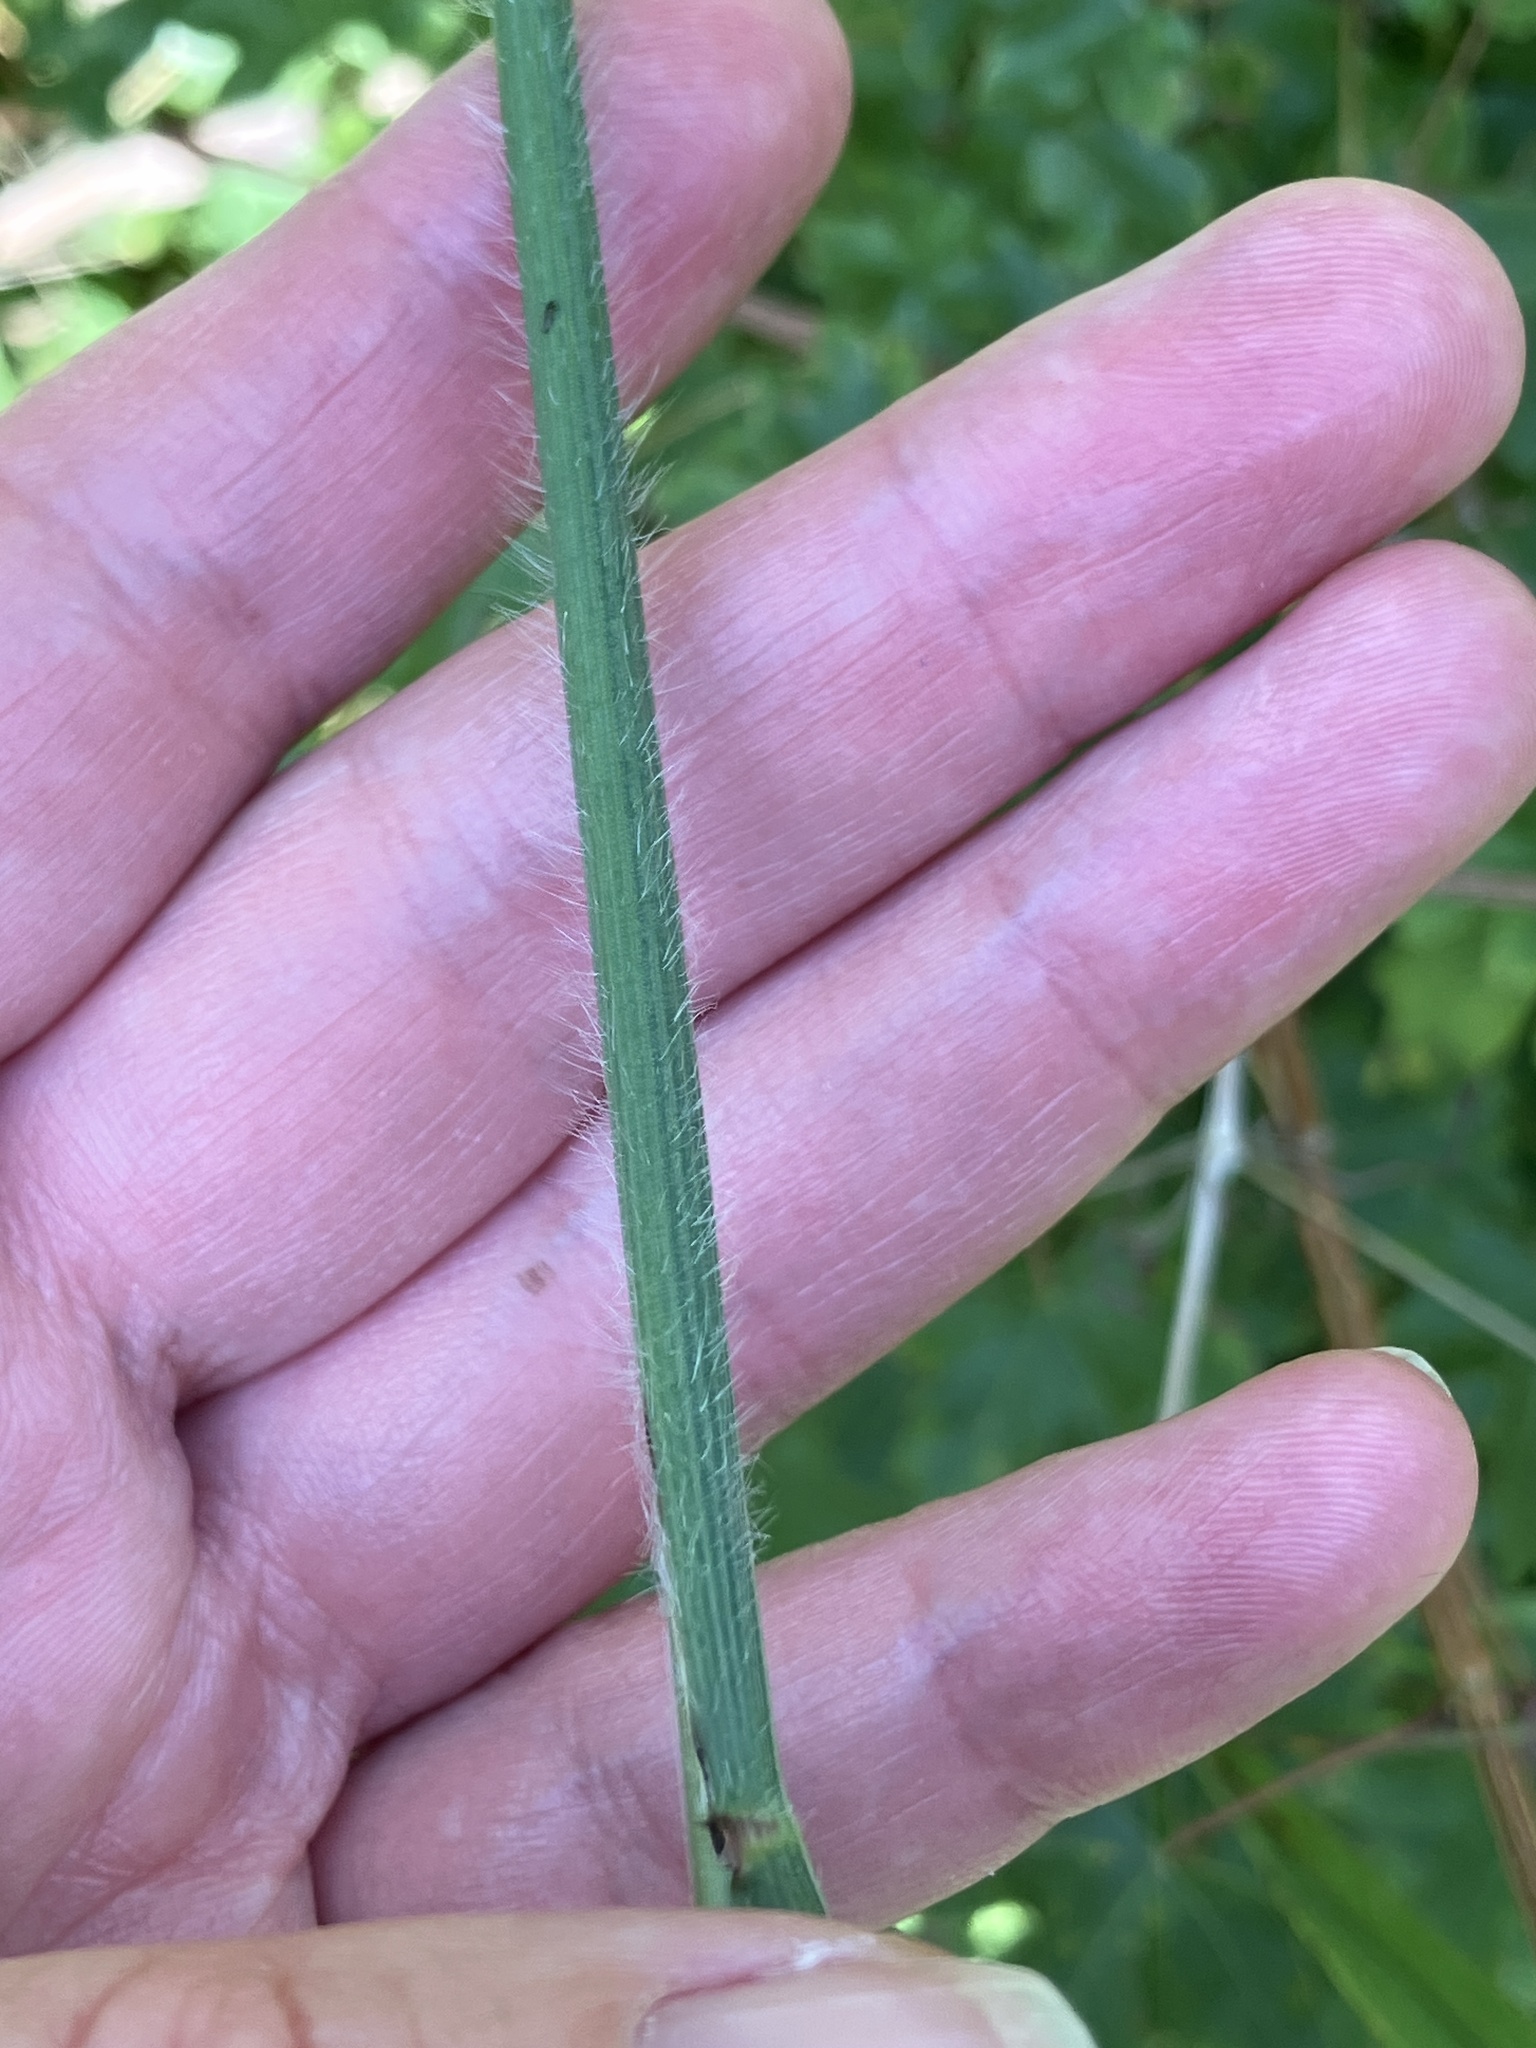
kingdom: Plantae
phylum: Tracheophyta
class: Liliopsida
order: Poales
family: Poaceae
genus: Bromus
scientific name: Bromus ramosus
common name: Hairy brome
